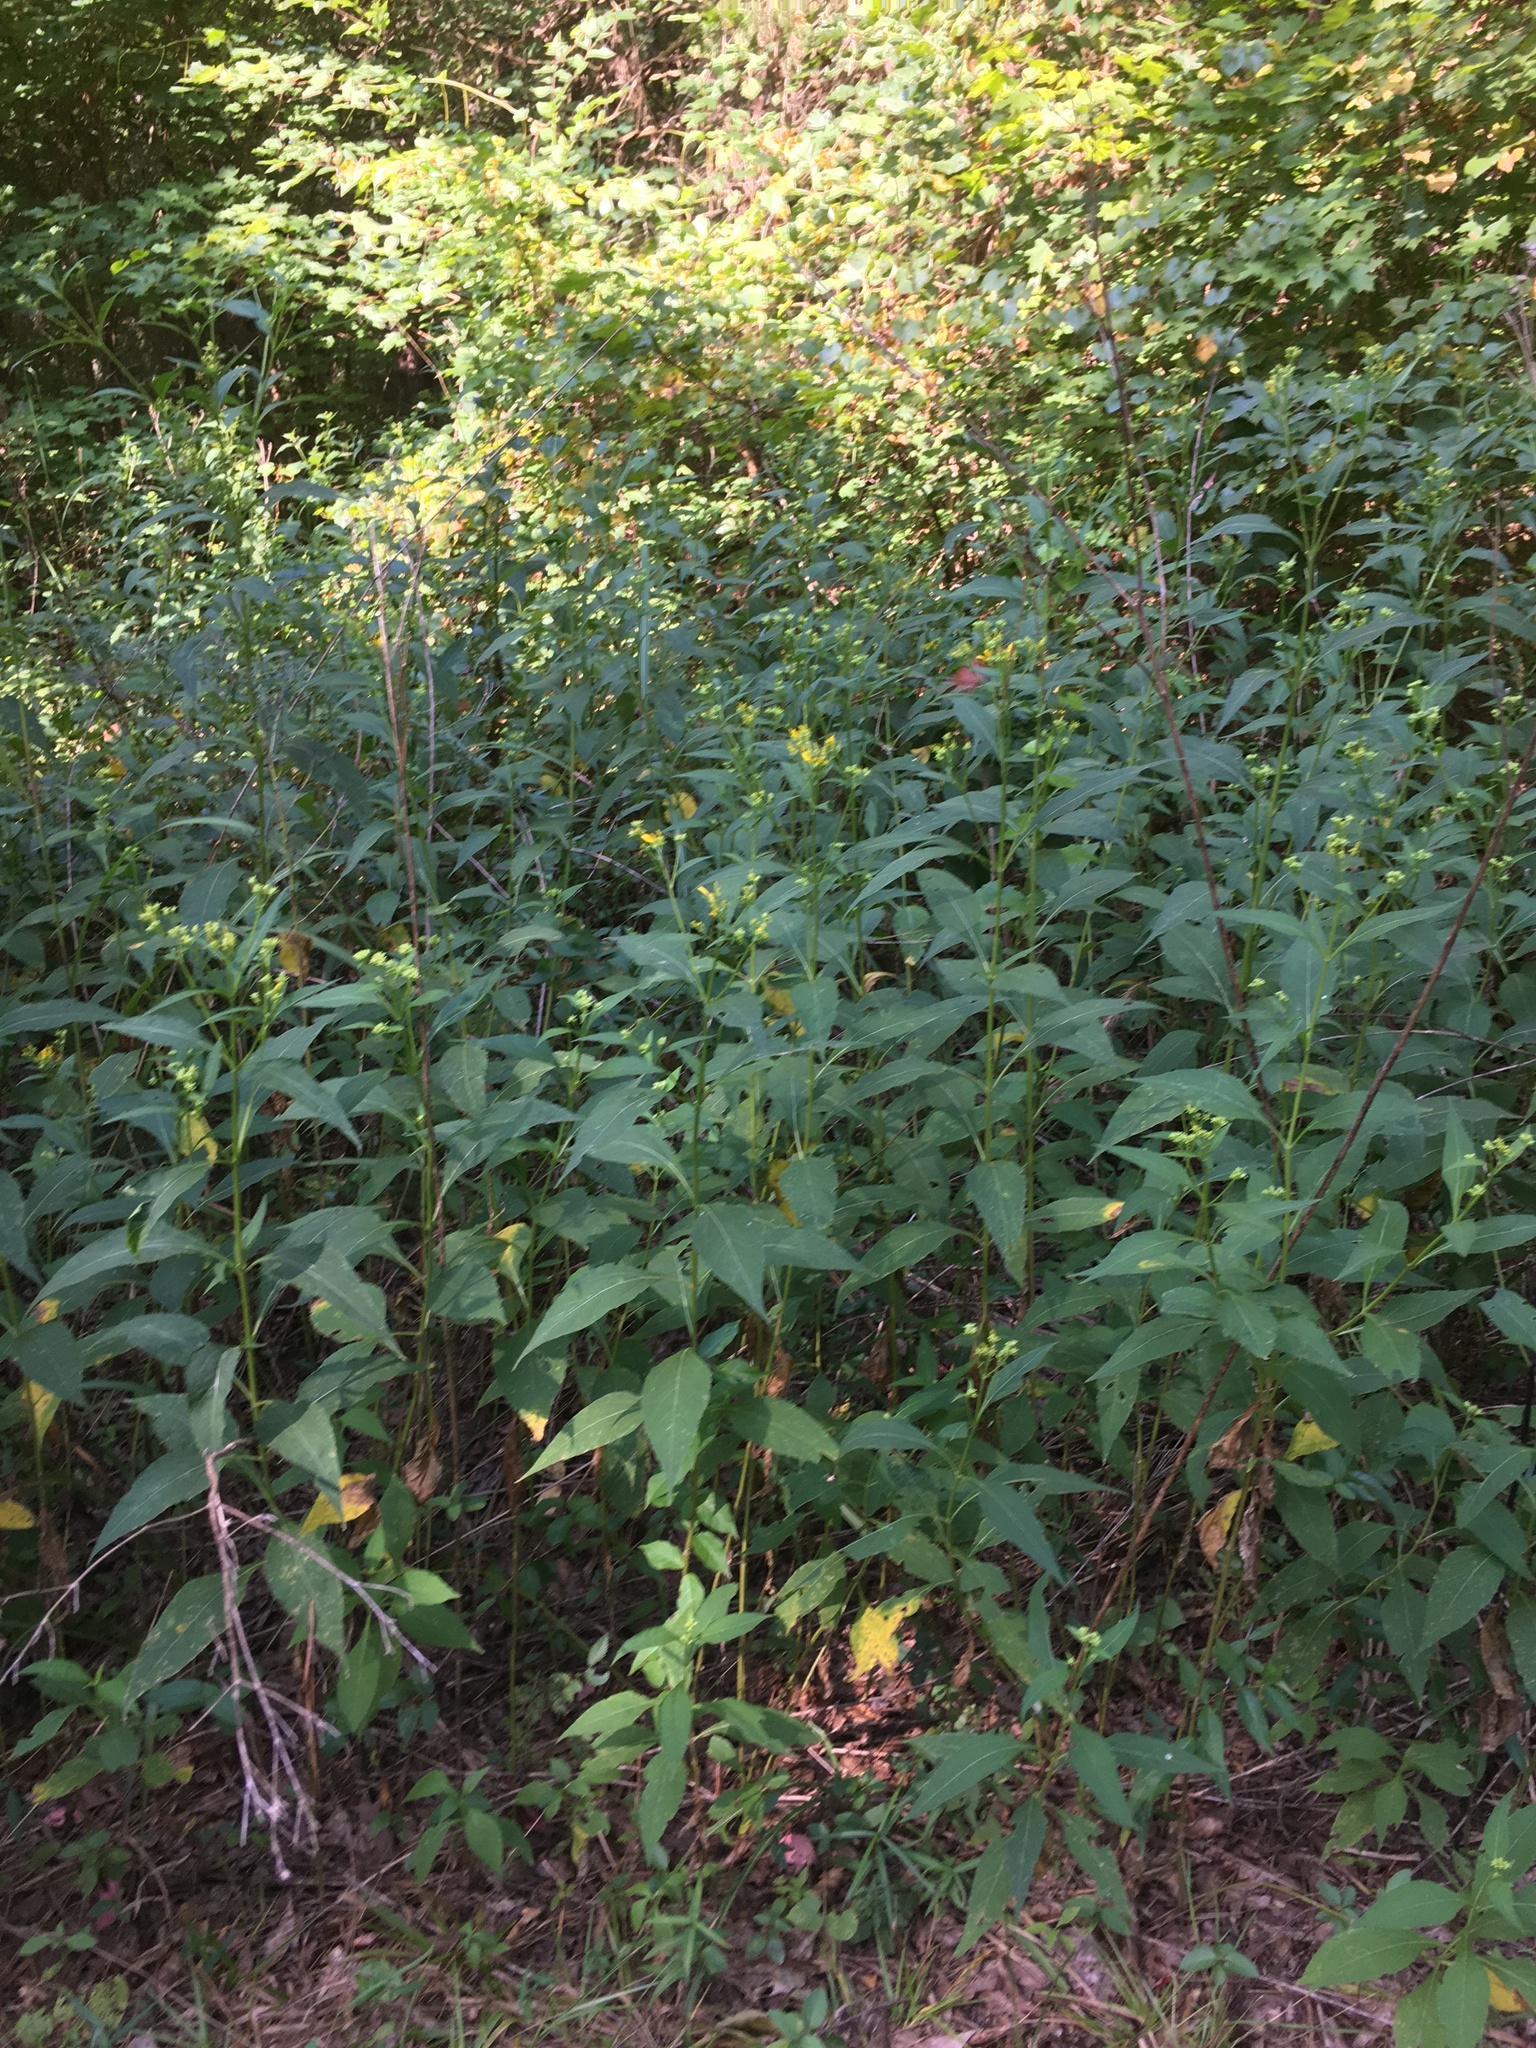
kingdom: Plantae
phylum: Tracheophyta
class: Magnoliopsida
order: Asterales
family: Asteraceae
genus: Verbesina
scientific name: Verbesina occidentalis
